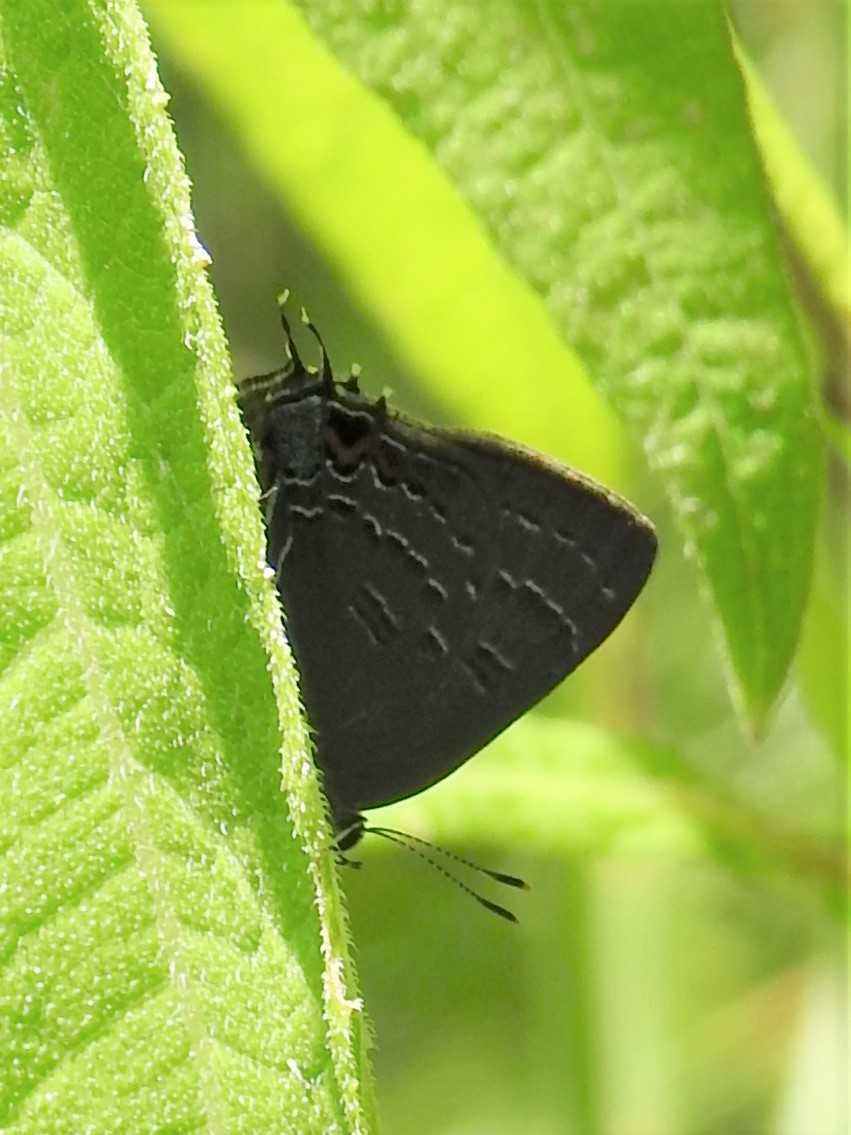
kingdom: Animalia
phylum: Arthropoda
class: Insecta
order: Lepidoptera
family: Lycaenidae
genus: Satyrium
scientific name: Satyrium calanus
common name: Banded hairstreak
